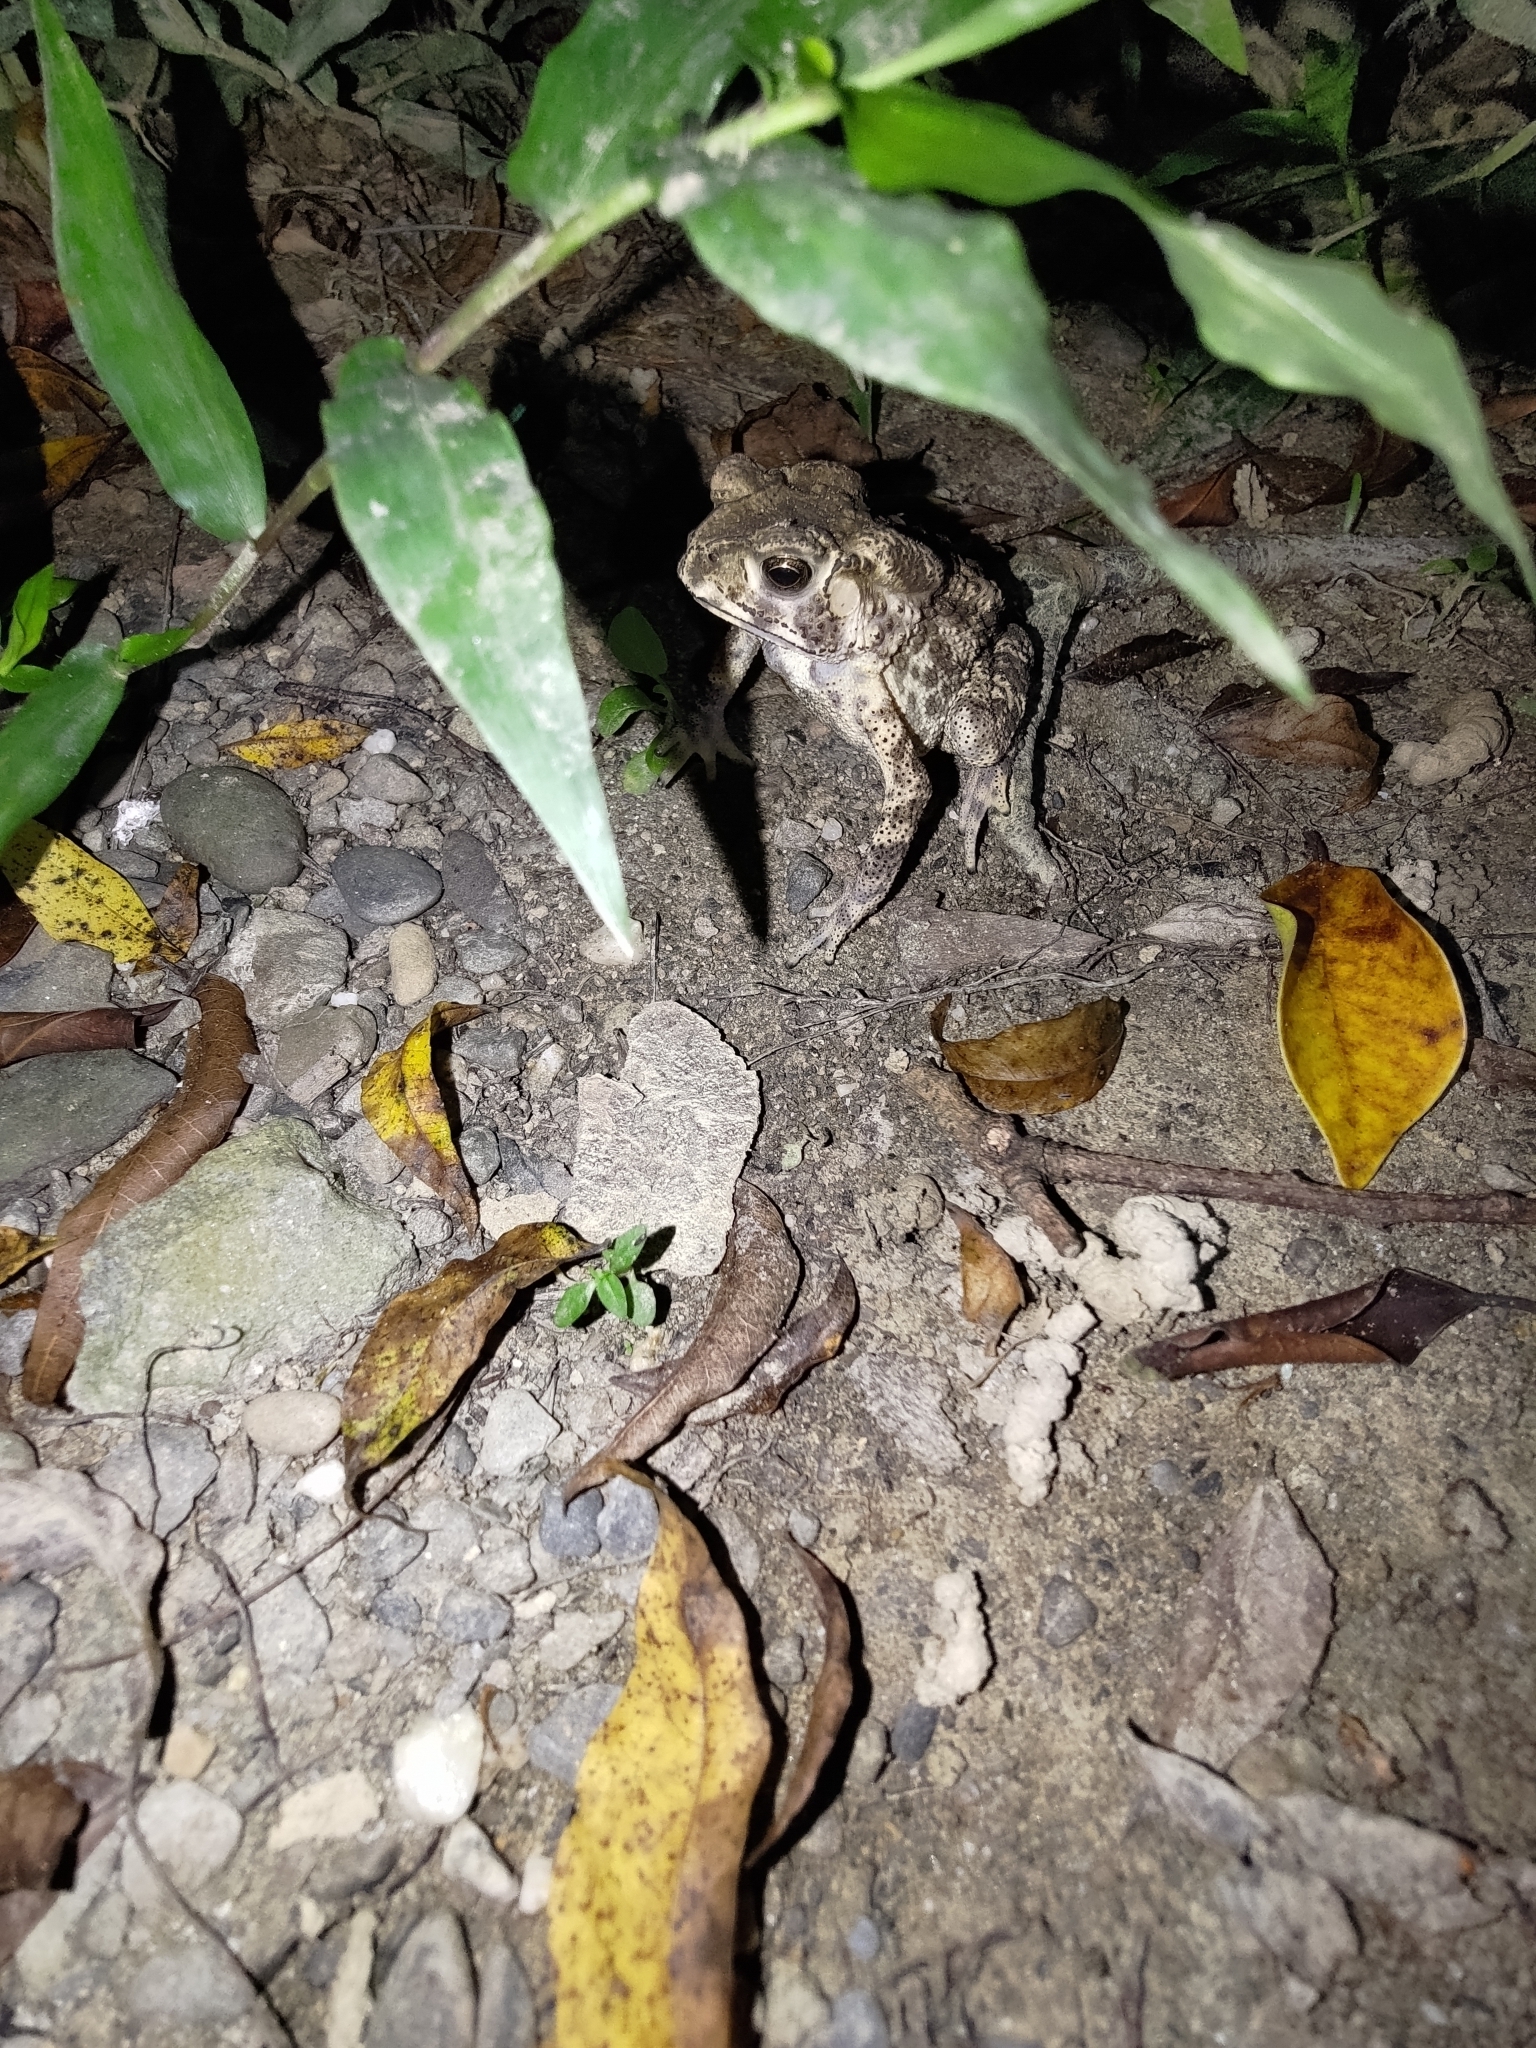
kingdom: Animalia
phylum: Chordata
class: Amphibia
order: Anura
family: Bufonidae
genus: Duttaphrynus
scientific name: Duttaphrynus melanostictus
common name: Common sunda toad
